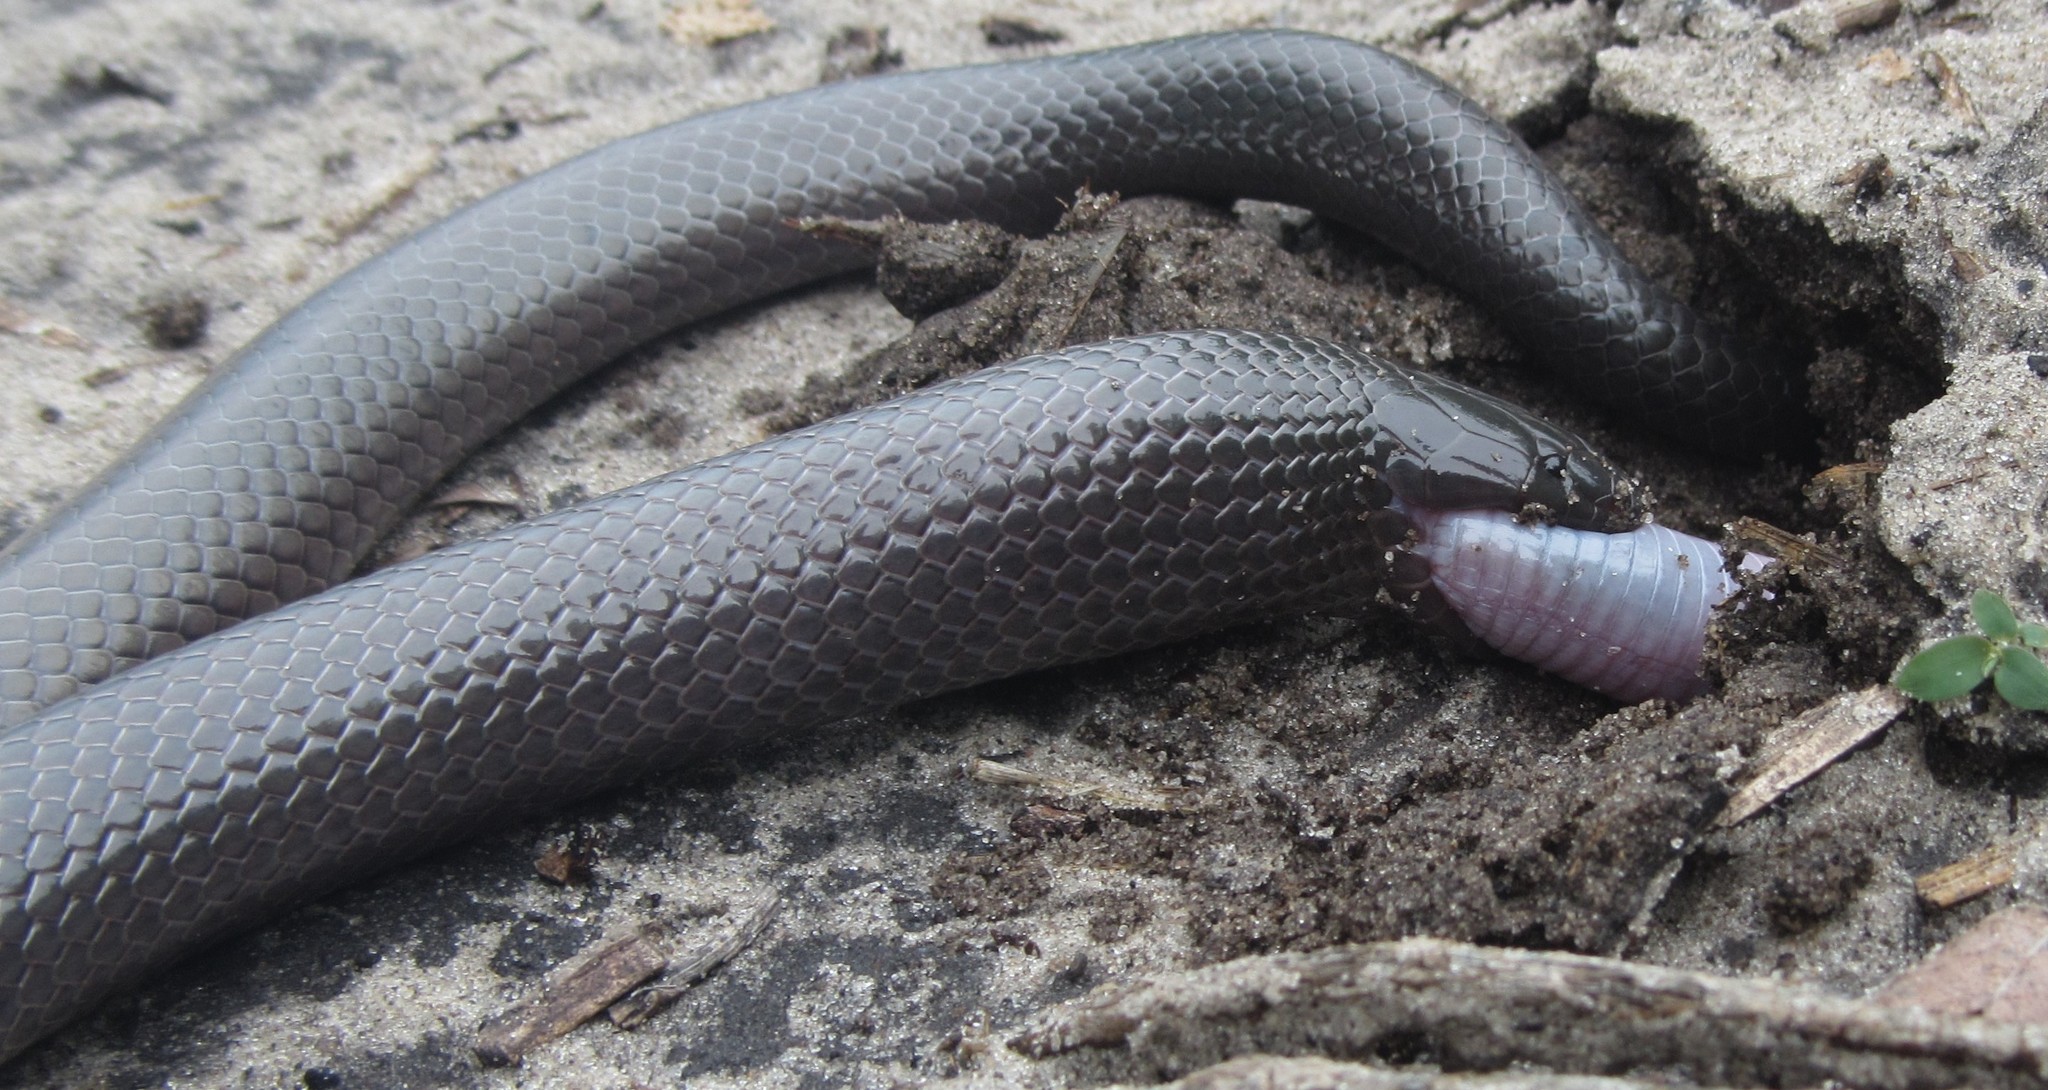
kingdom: Animalia
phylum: Chordata
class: Squamata
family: Atractaspididae
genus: Amblyodipsas
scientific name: Amblyodipsas polylepis
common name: Common purple-glossed snake
